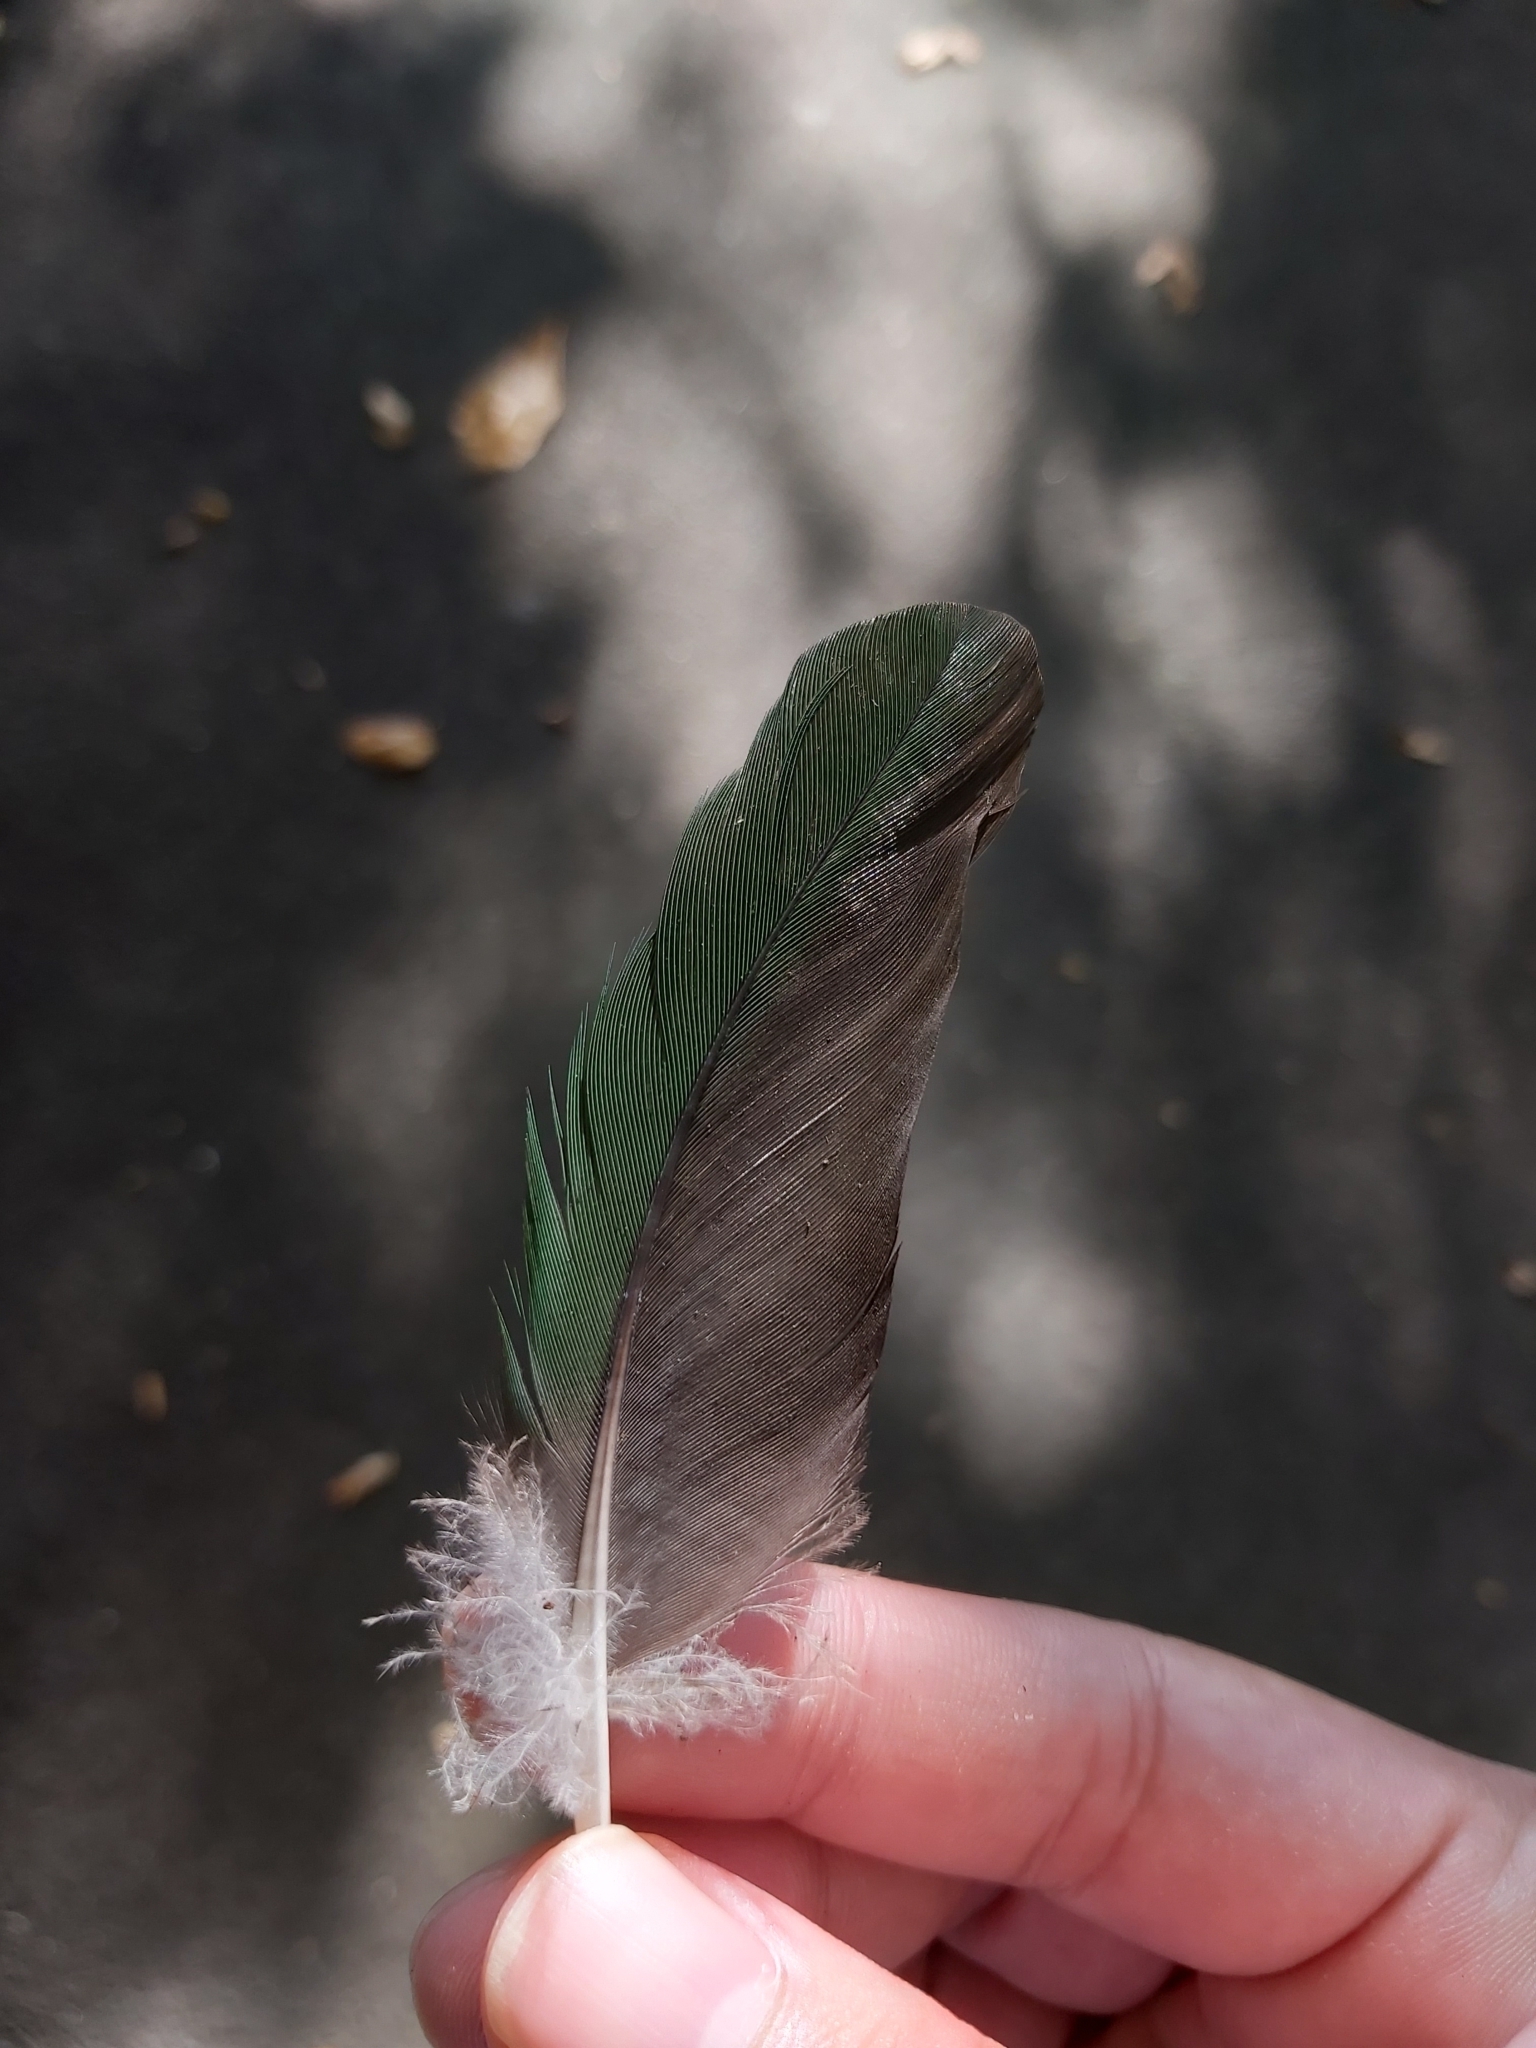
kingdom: Animalia
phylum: Chordata
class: Aves
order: Psittaciformes
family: Psittacidae
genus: Alisterus
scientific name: Alisterus scapularis
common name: Australian king parrot
